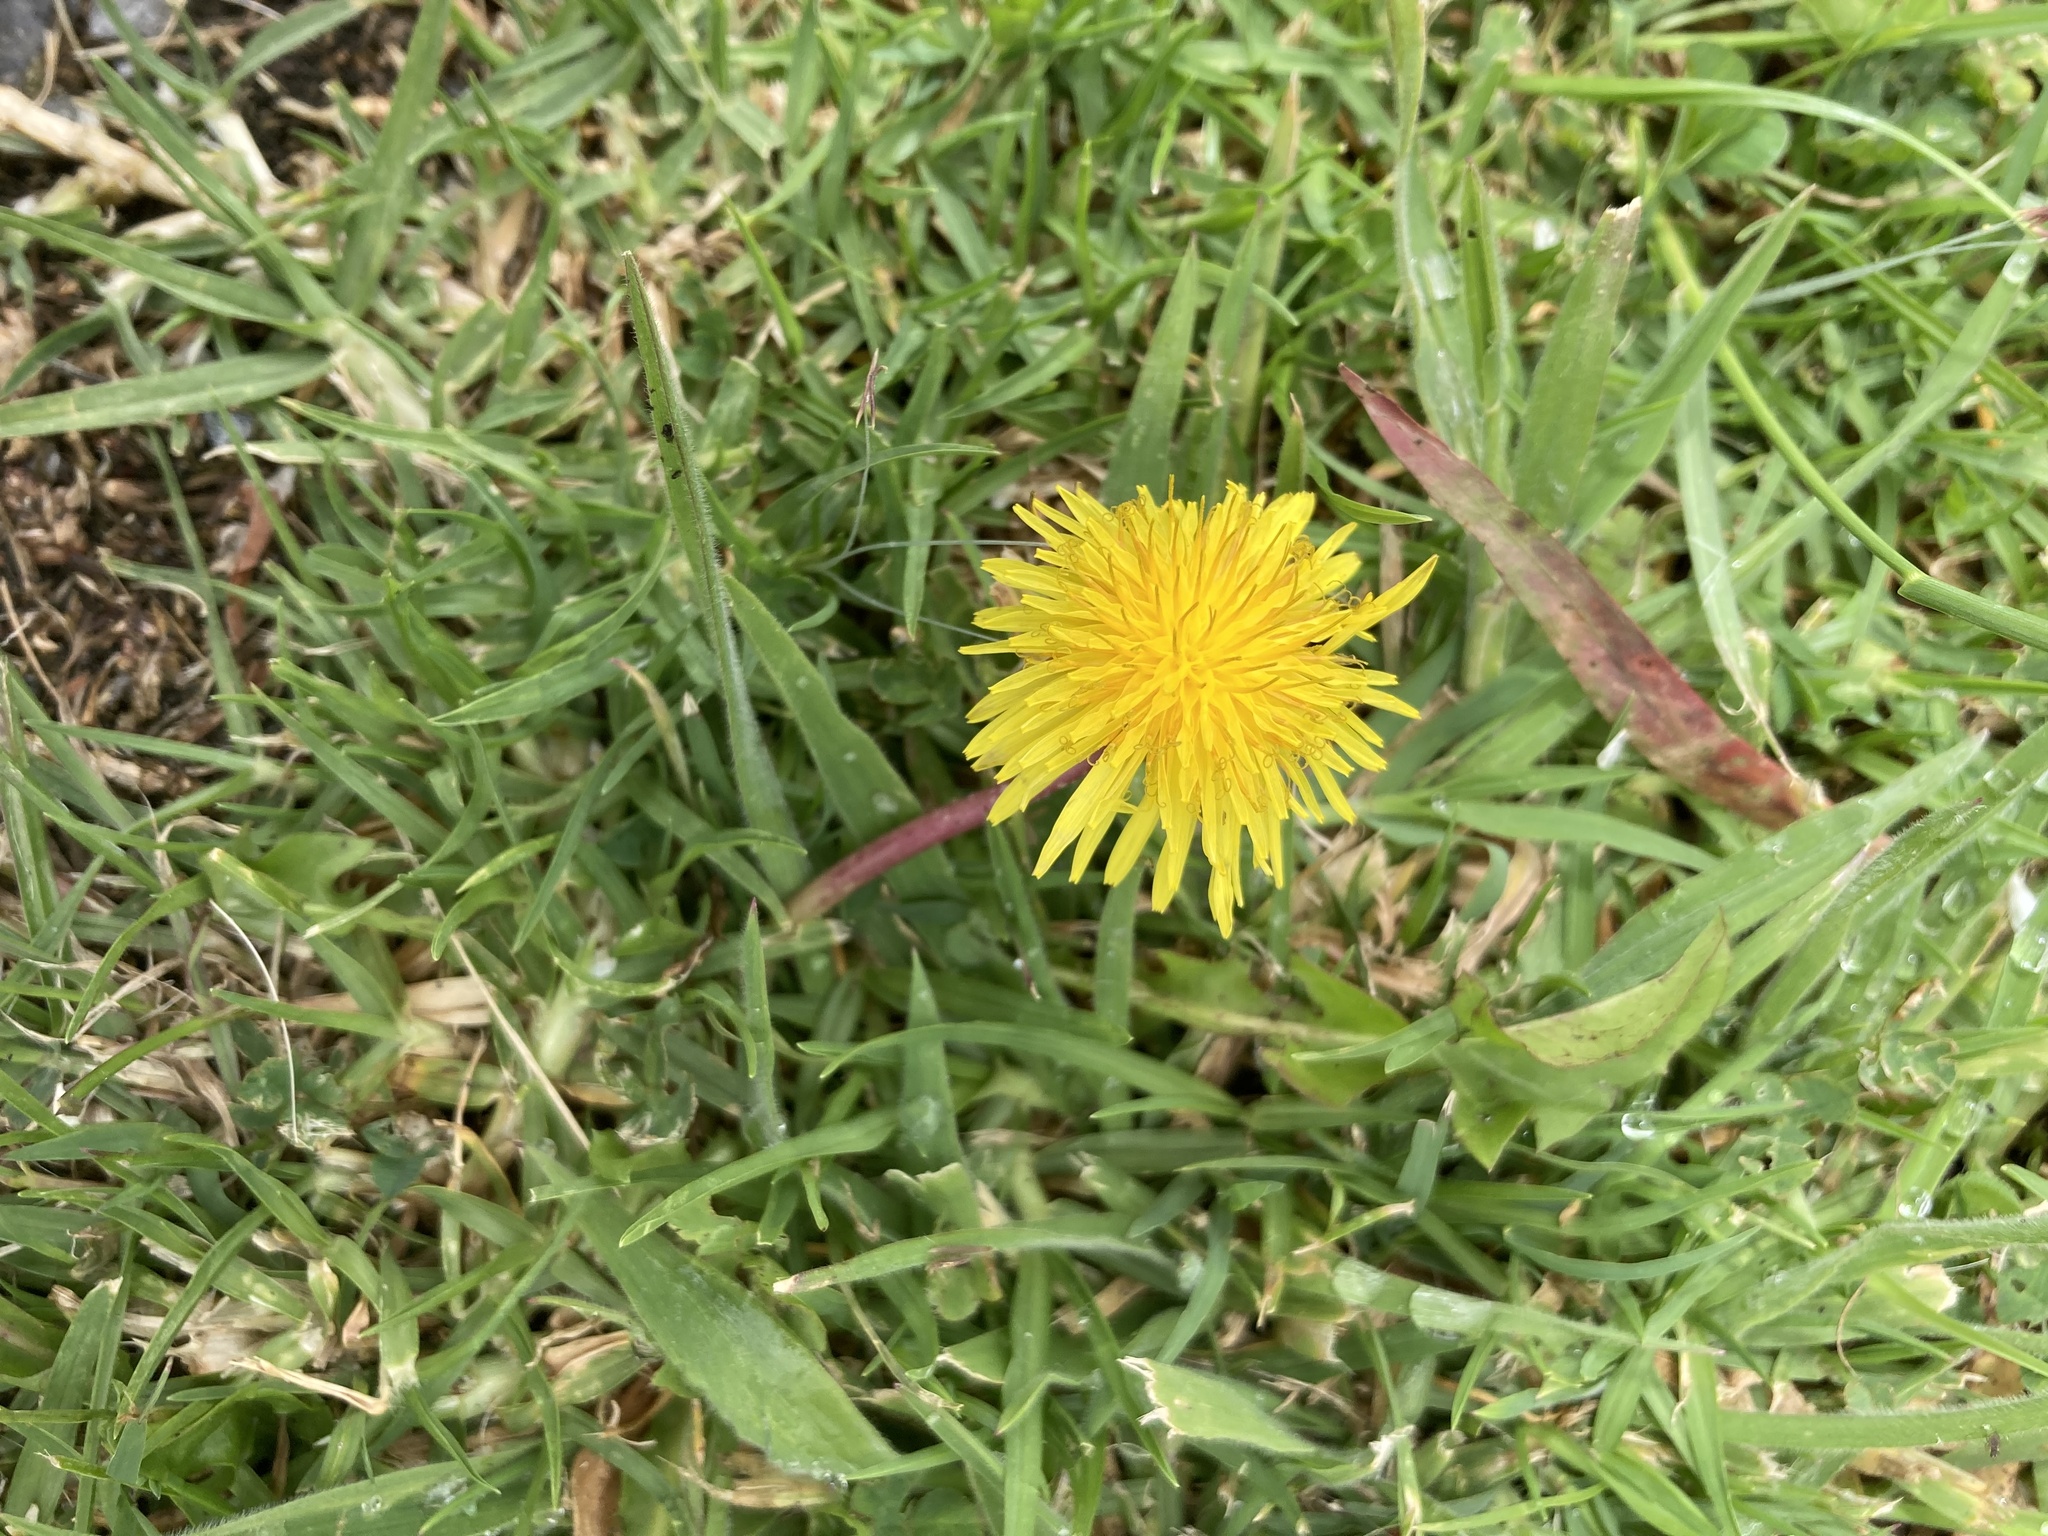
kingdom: Plantae
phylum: Tracheophyta
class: Magnoliopsida
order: Asterales
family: Asteraceae
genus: Taraxacum
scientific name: Taraxacum officinale
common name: Common dandelion
